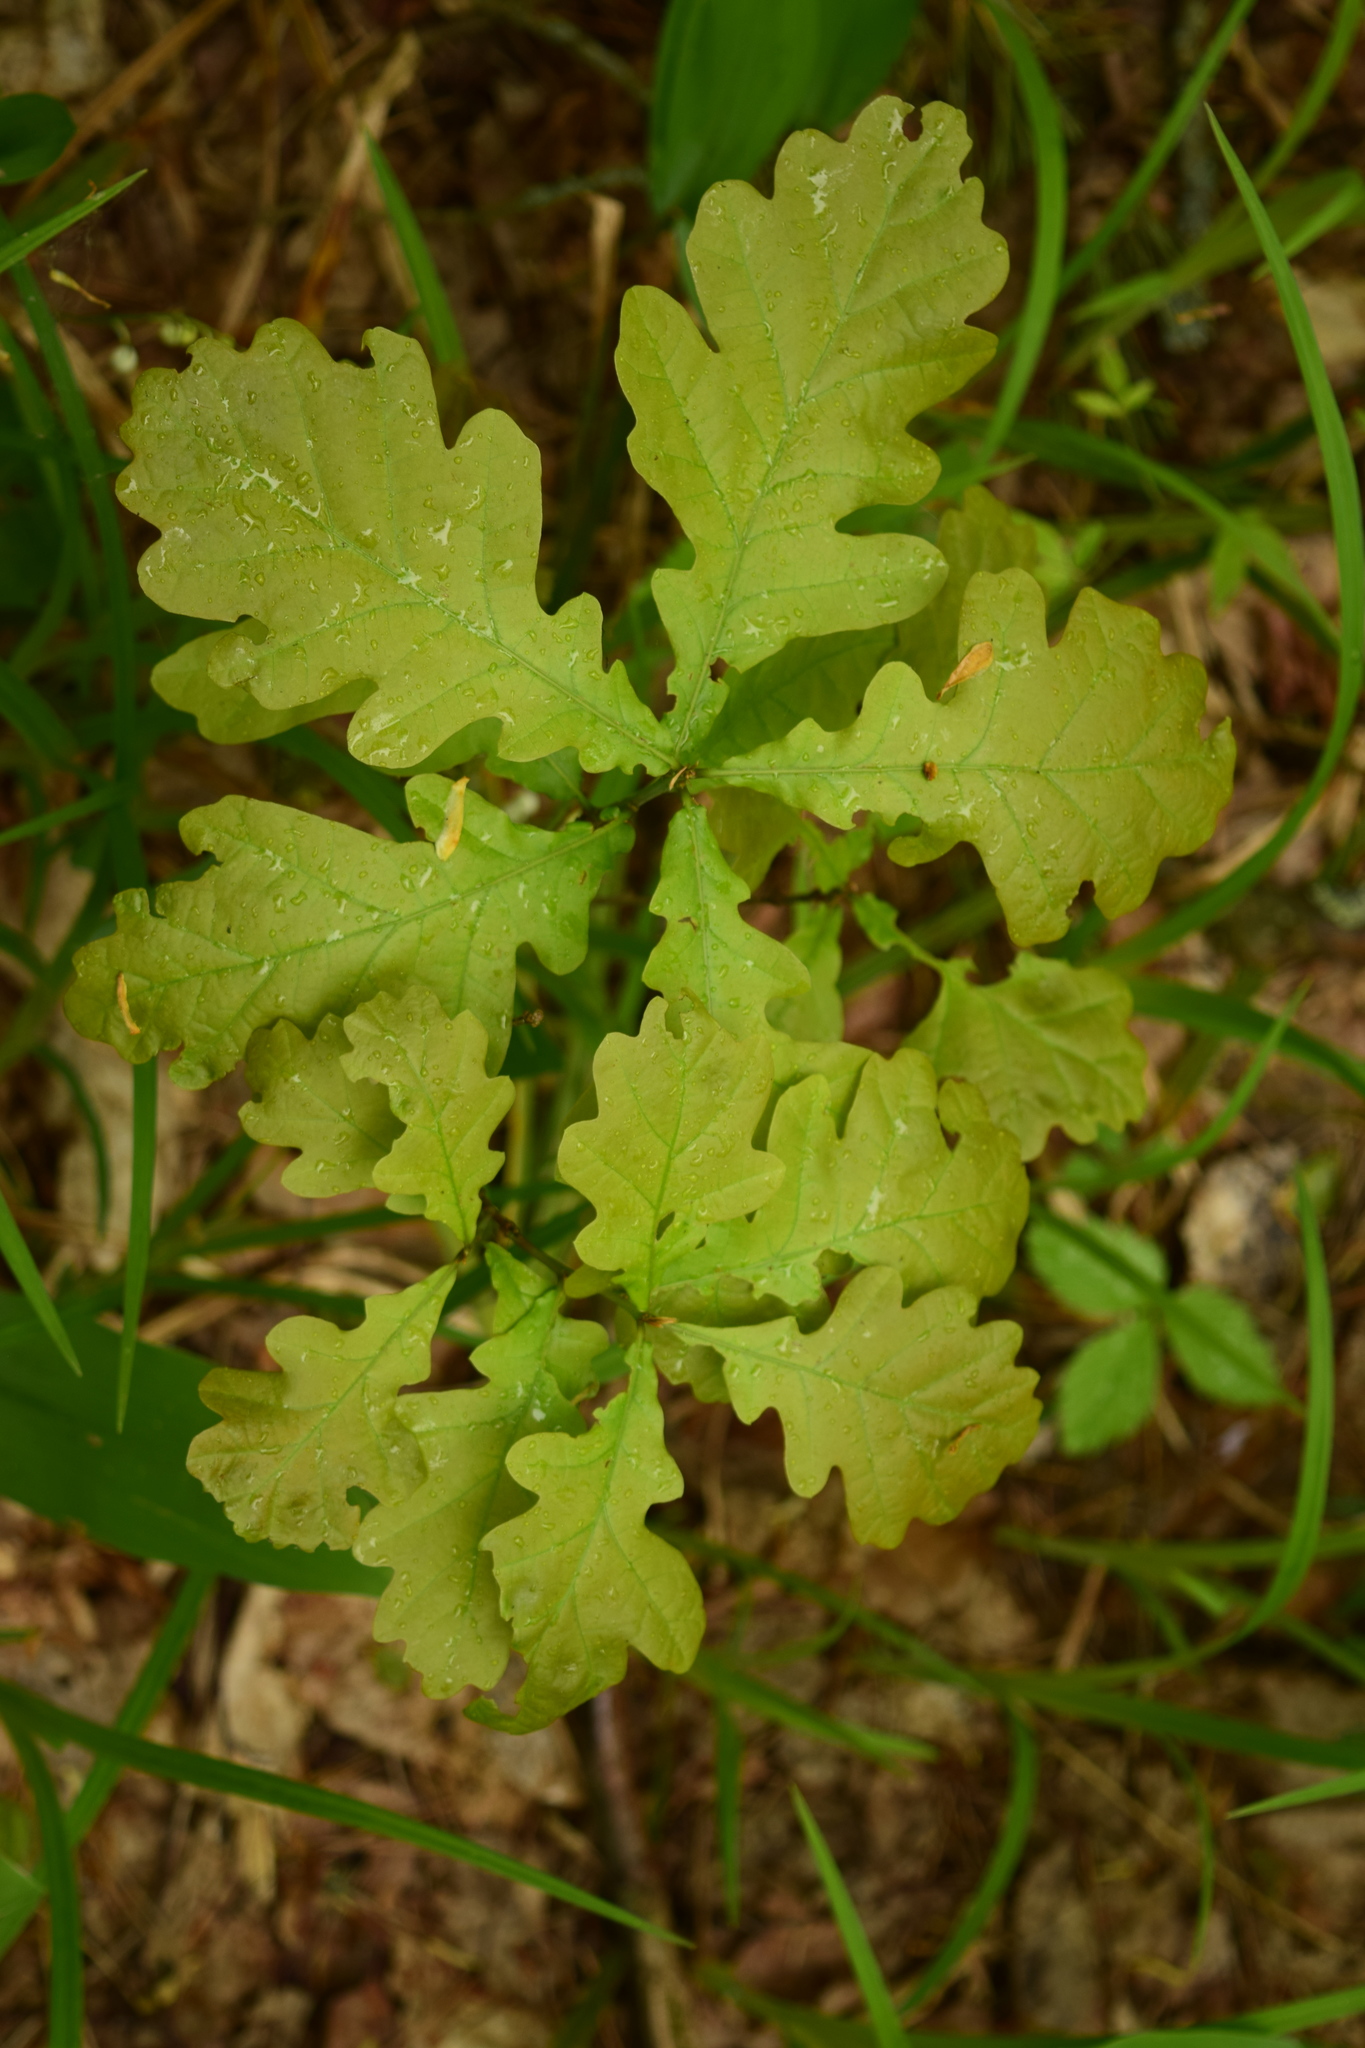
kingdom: Plantae
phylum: Tracheophyta
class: Magnoliopsida
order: Fagales
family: Fagaceae
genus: Quercus
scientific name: Quercus robur
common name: Pedunculate oak
